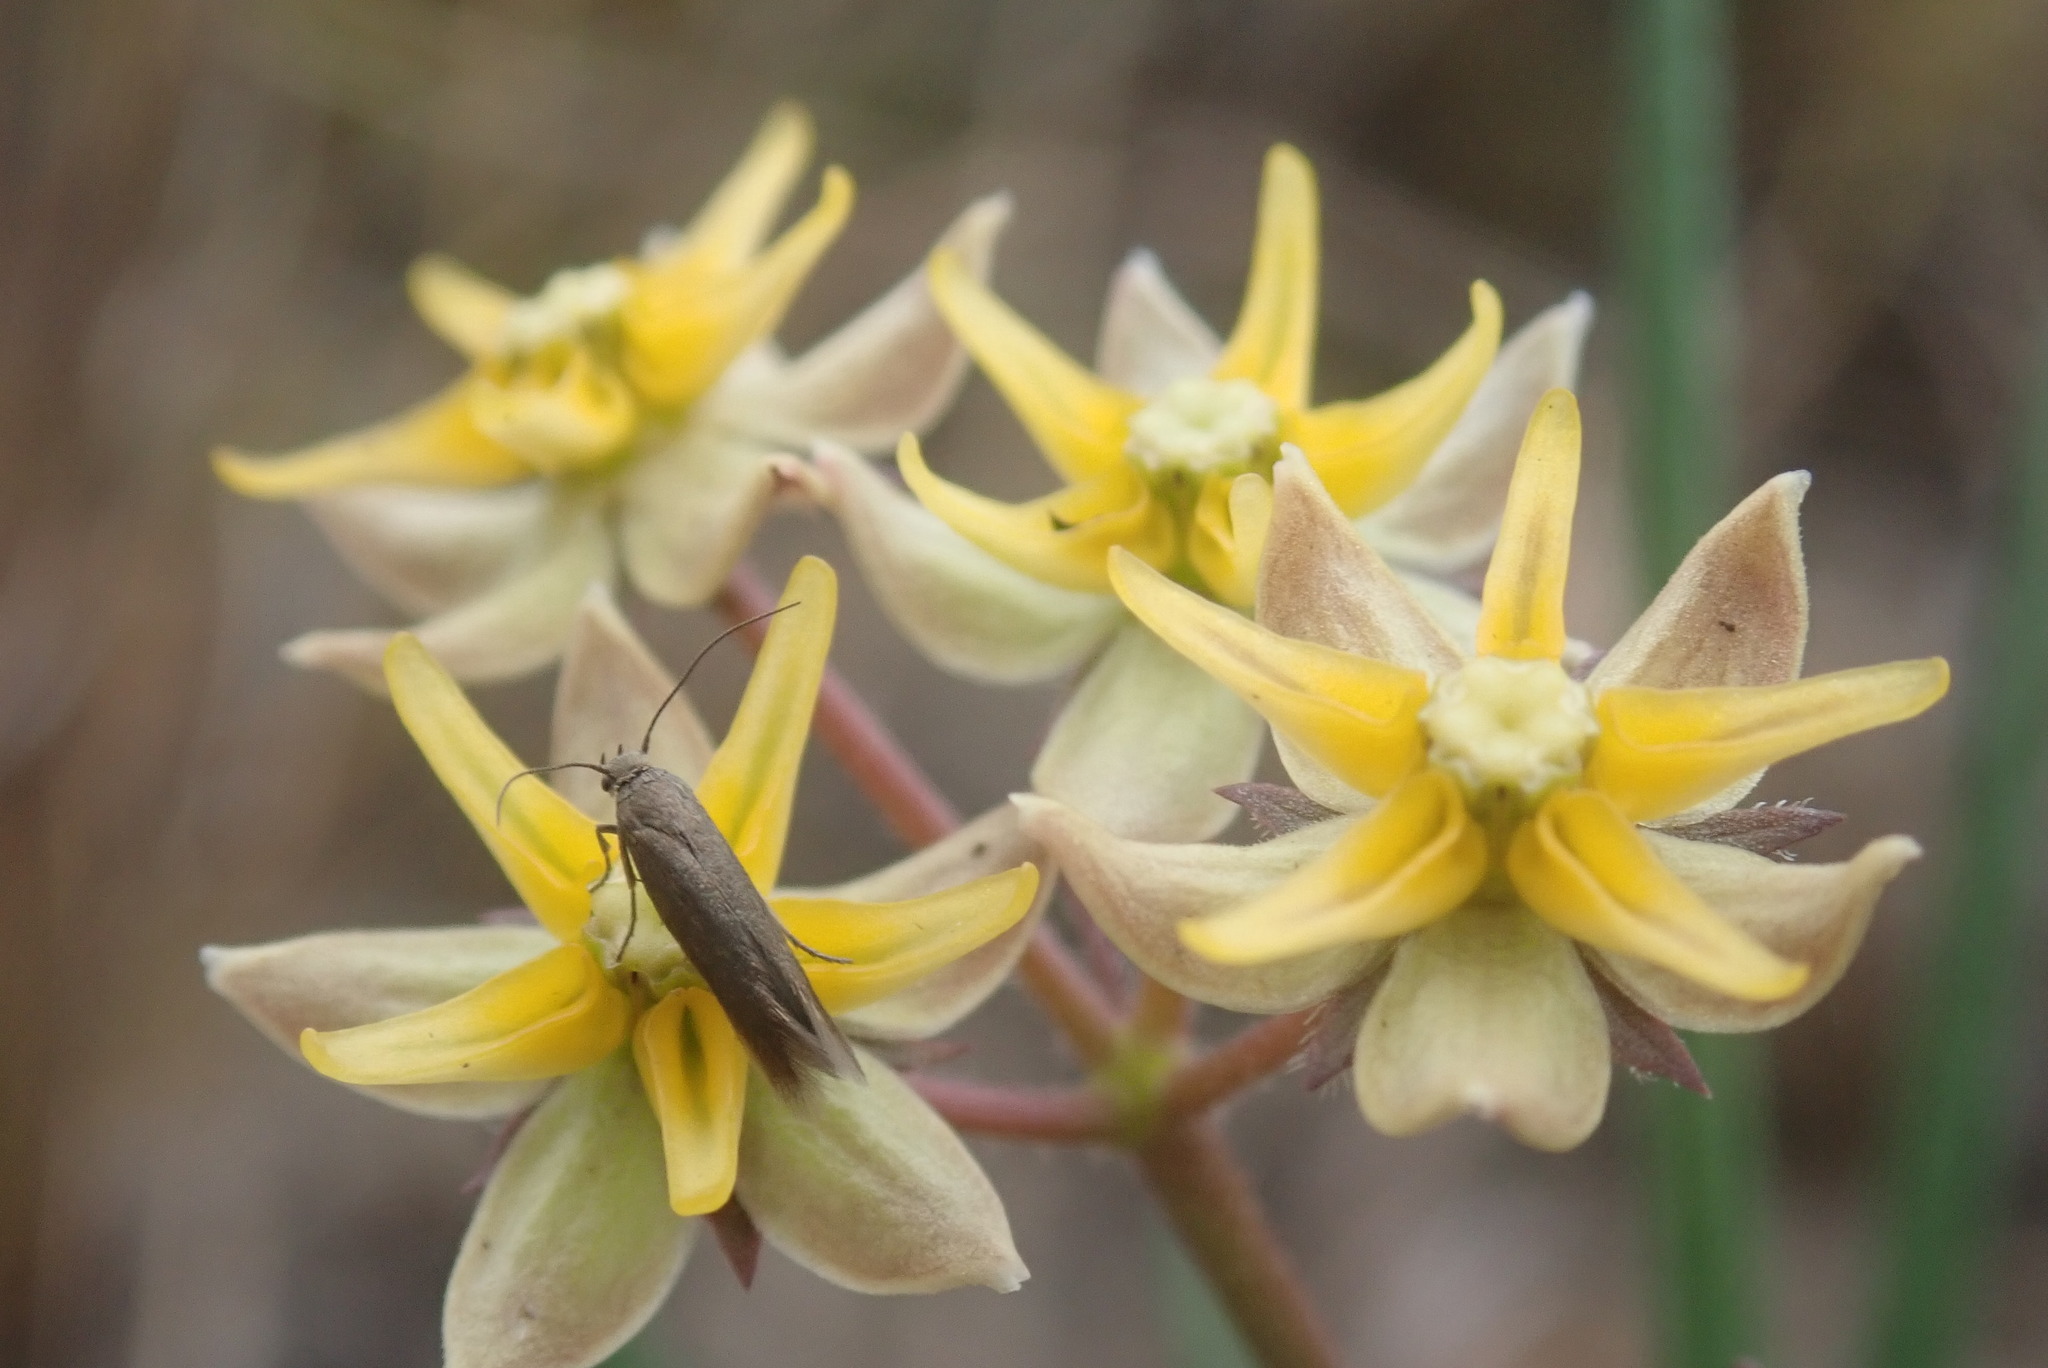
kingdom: Plantae
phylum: Tracheophyta
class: Magnoliopsida
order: Gentianales
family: Apocynaceae
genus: Asclepias
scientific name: Asclepias aurea
